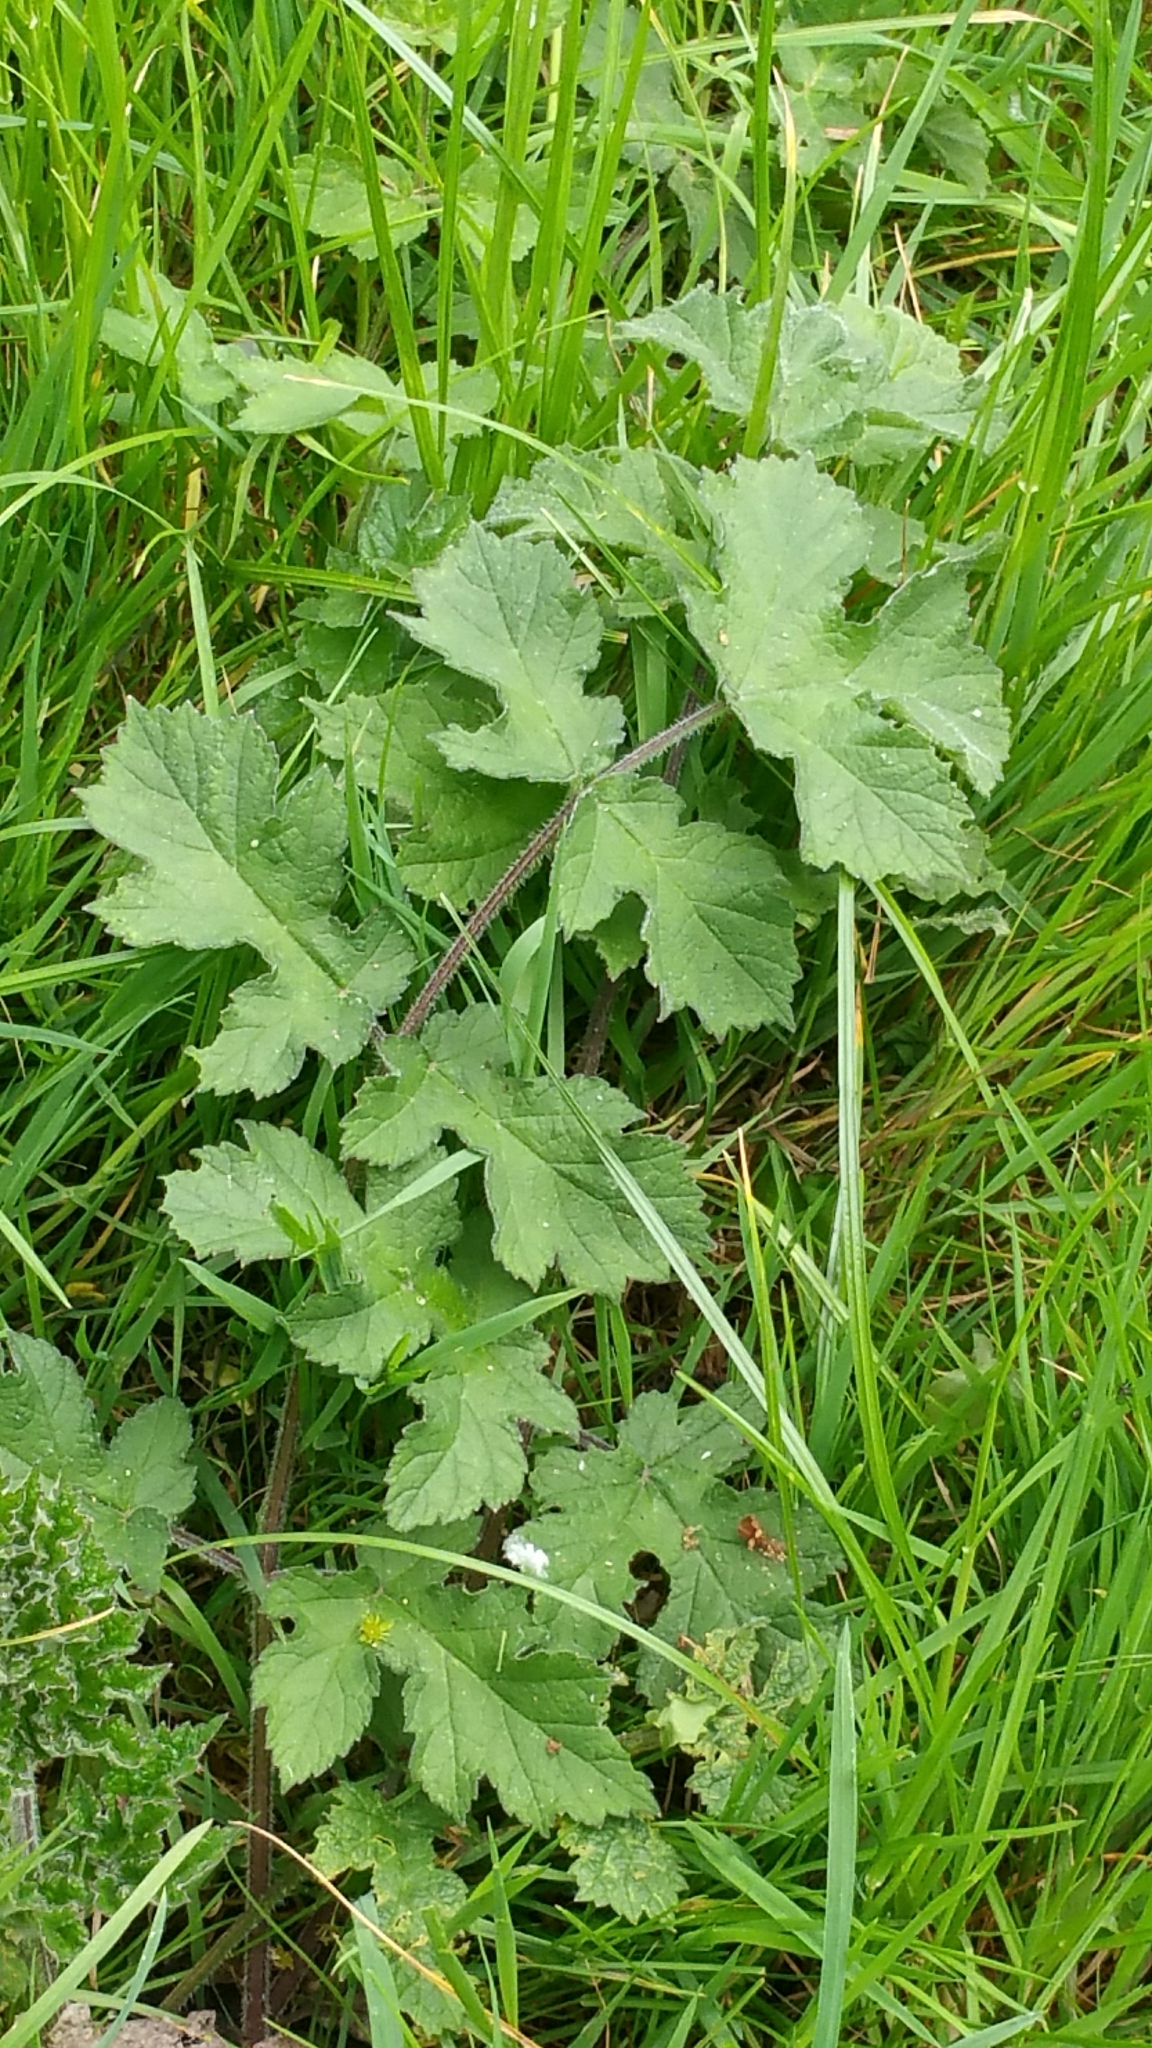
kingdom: Plantae
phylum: Tracheophyta
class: Magnoliopsida
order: Apiales
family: Apiaceae
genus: Heracleum
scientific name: Heracleum sphondylium
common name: Hogweed
